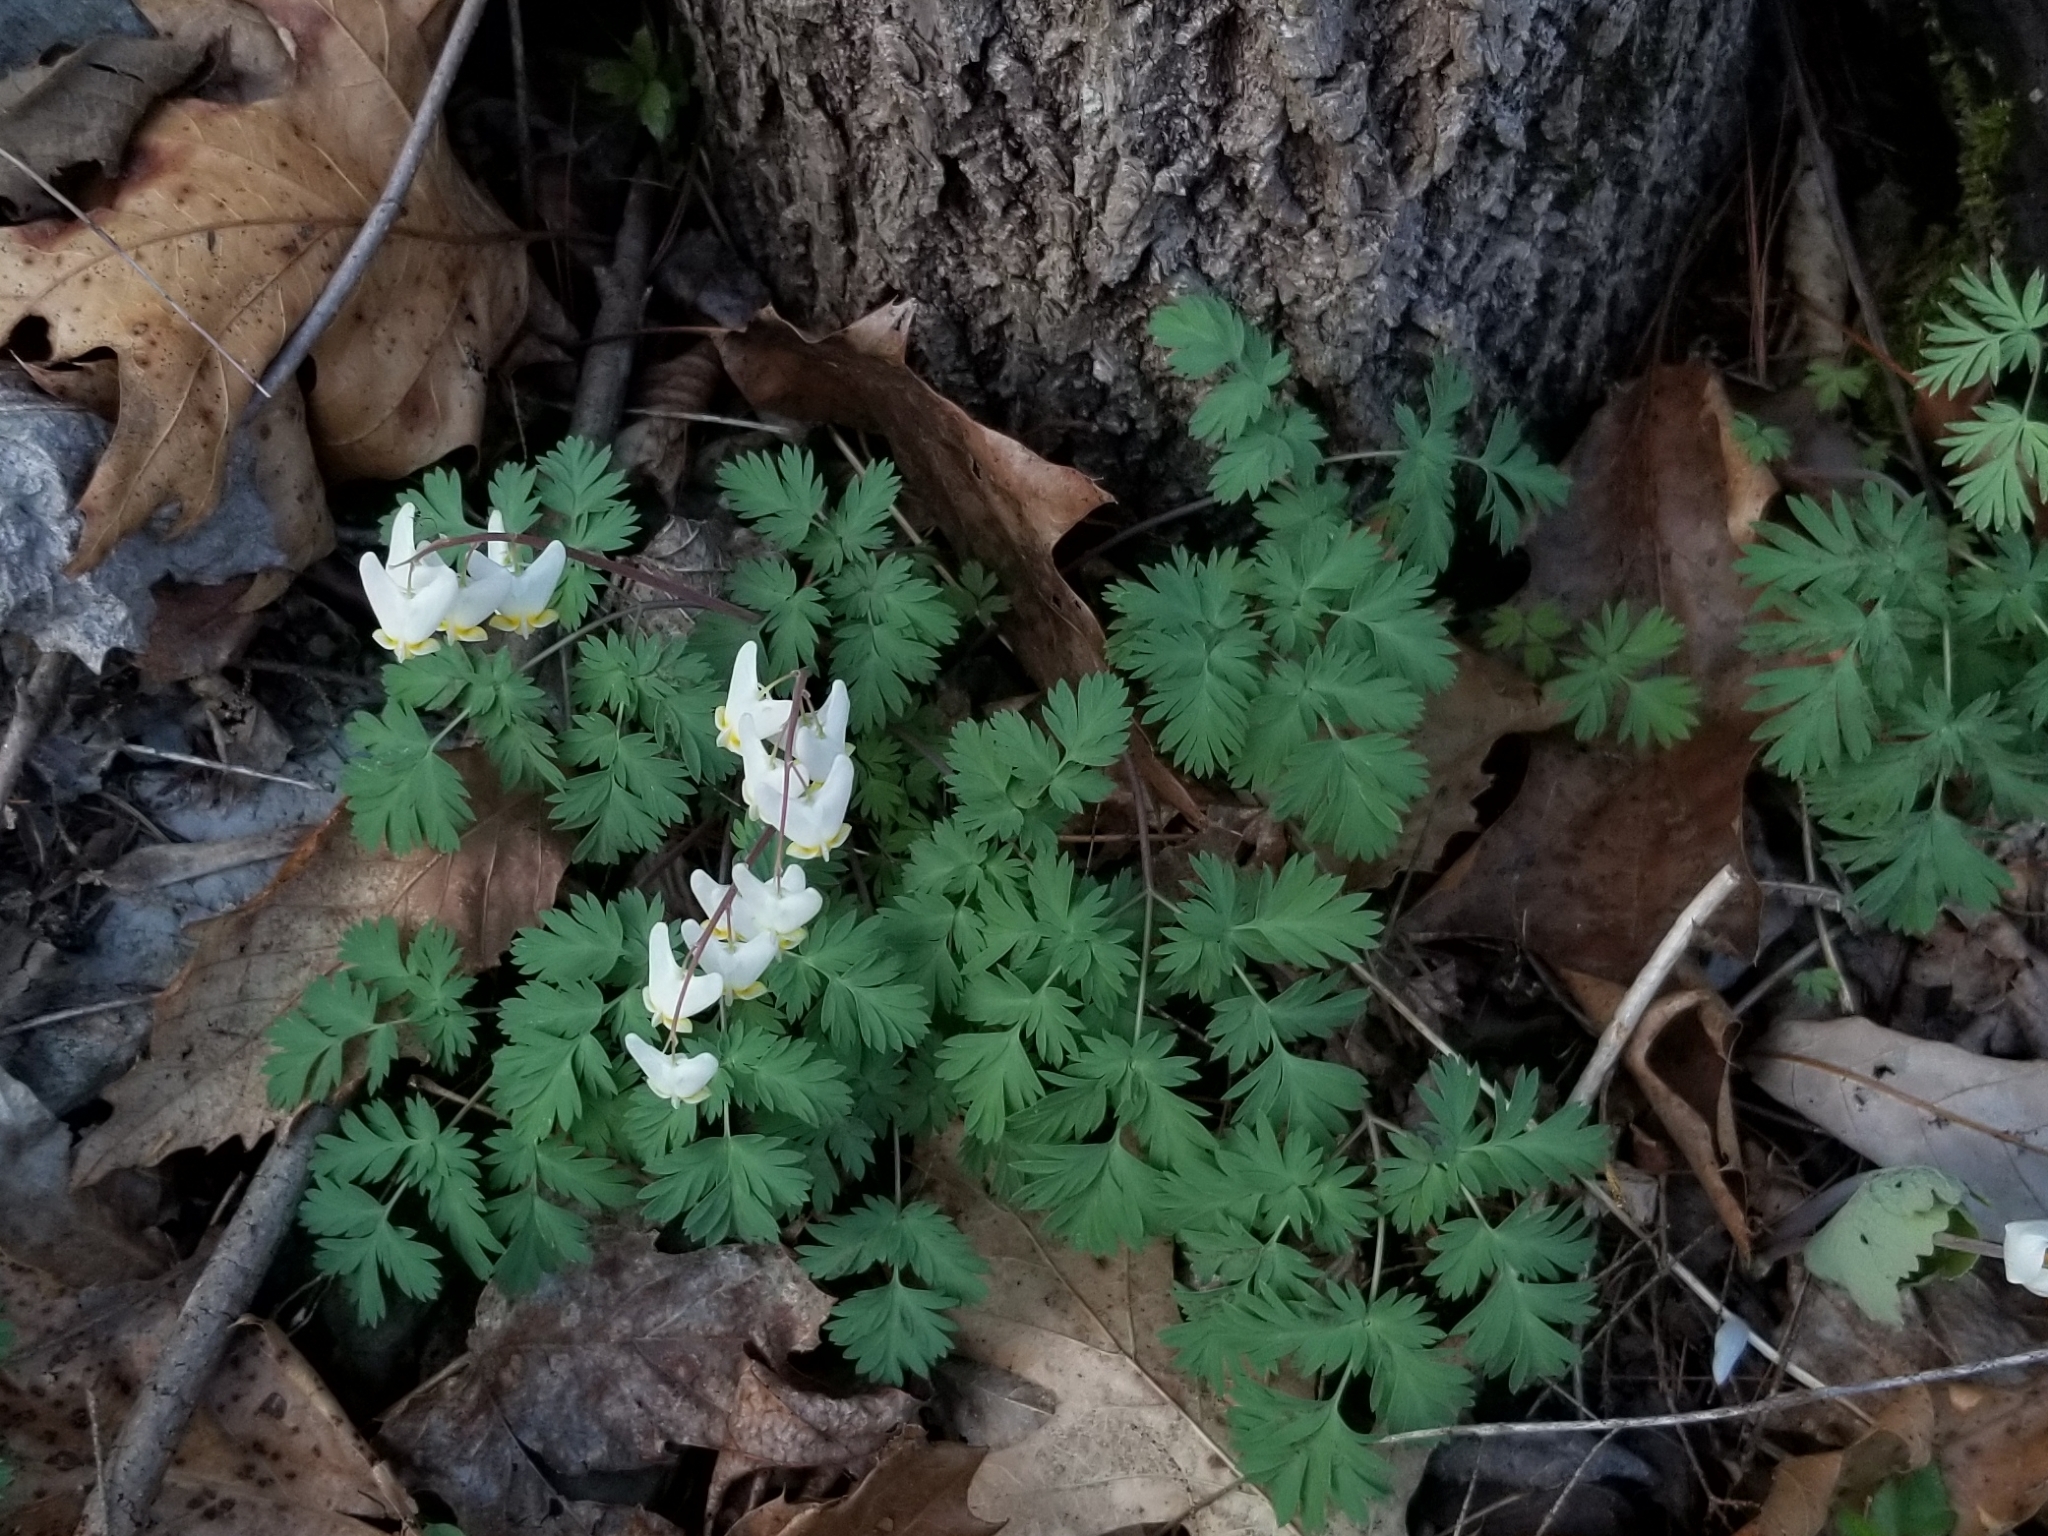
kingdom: Plantae
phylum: Tracheophyta
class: Magnoliopsida
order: Ranunculales
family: Papaveraceae
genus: Dicentra
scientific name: Dicentra cucullaria
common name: Dutchman's breeches
